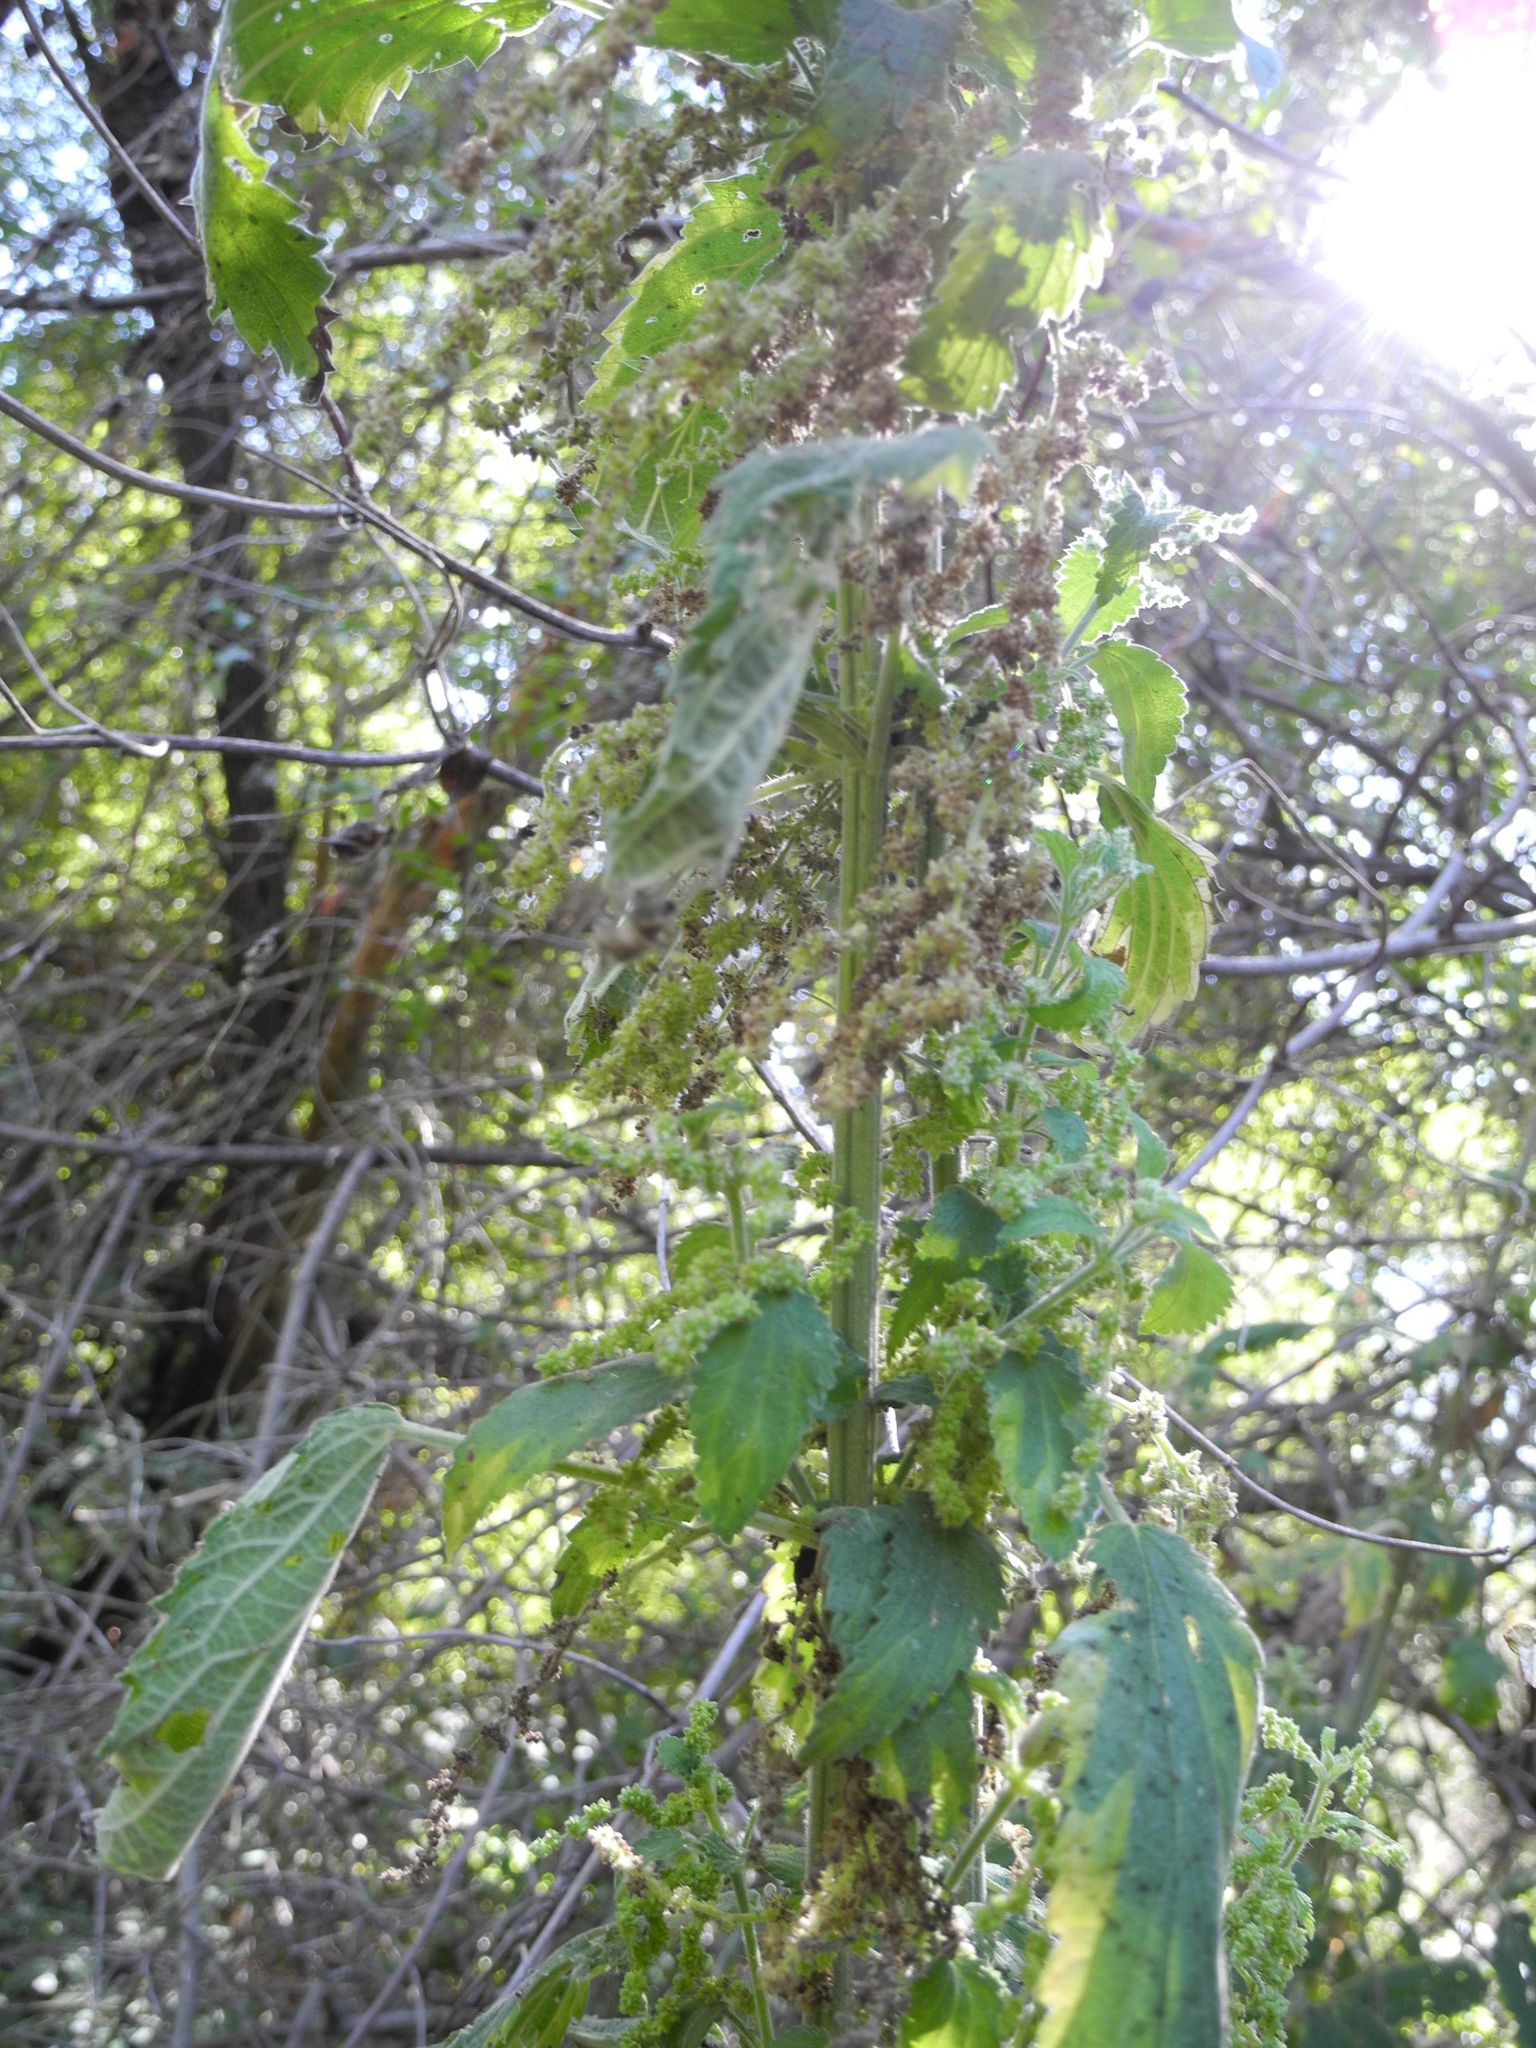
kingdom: Plantae
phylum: Tracheophyta
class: Magnoliopsida
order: Rosales
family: Urticaceae
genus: Urtica
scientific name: Urtica dioica
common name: Common nettle
